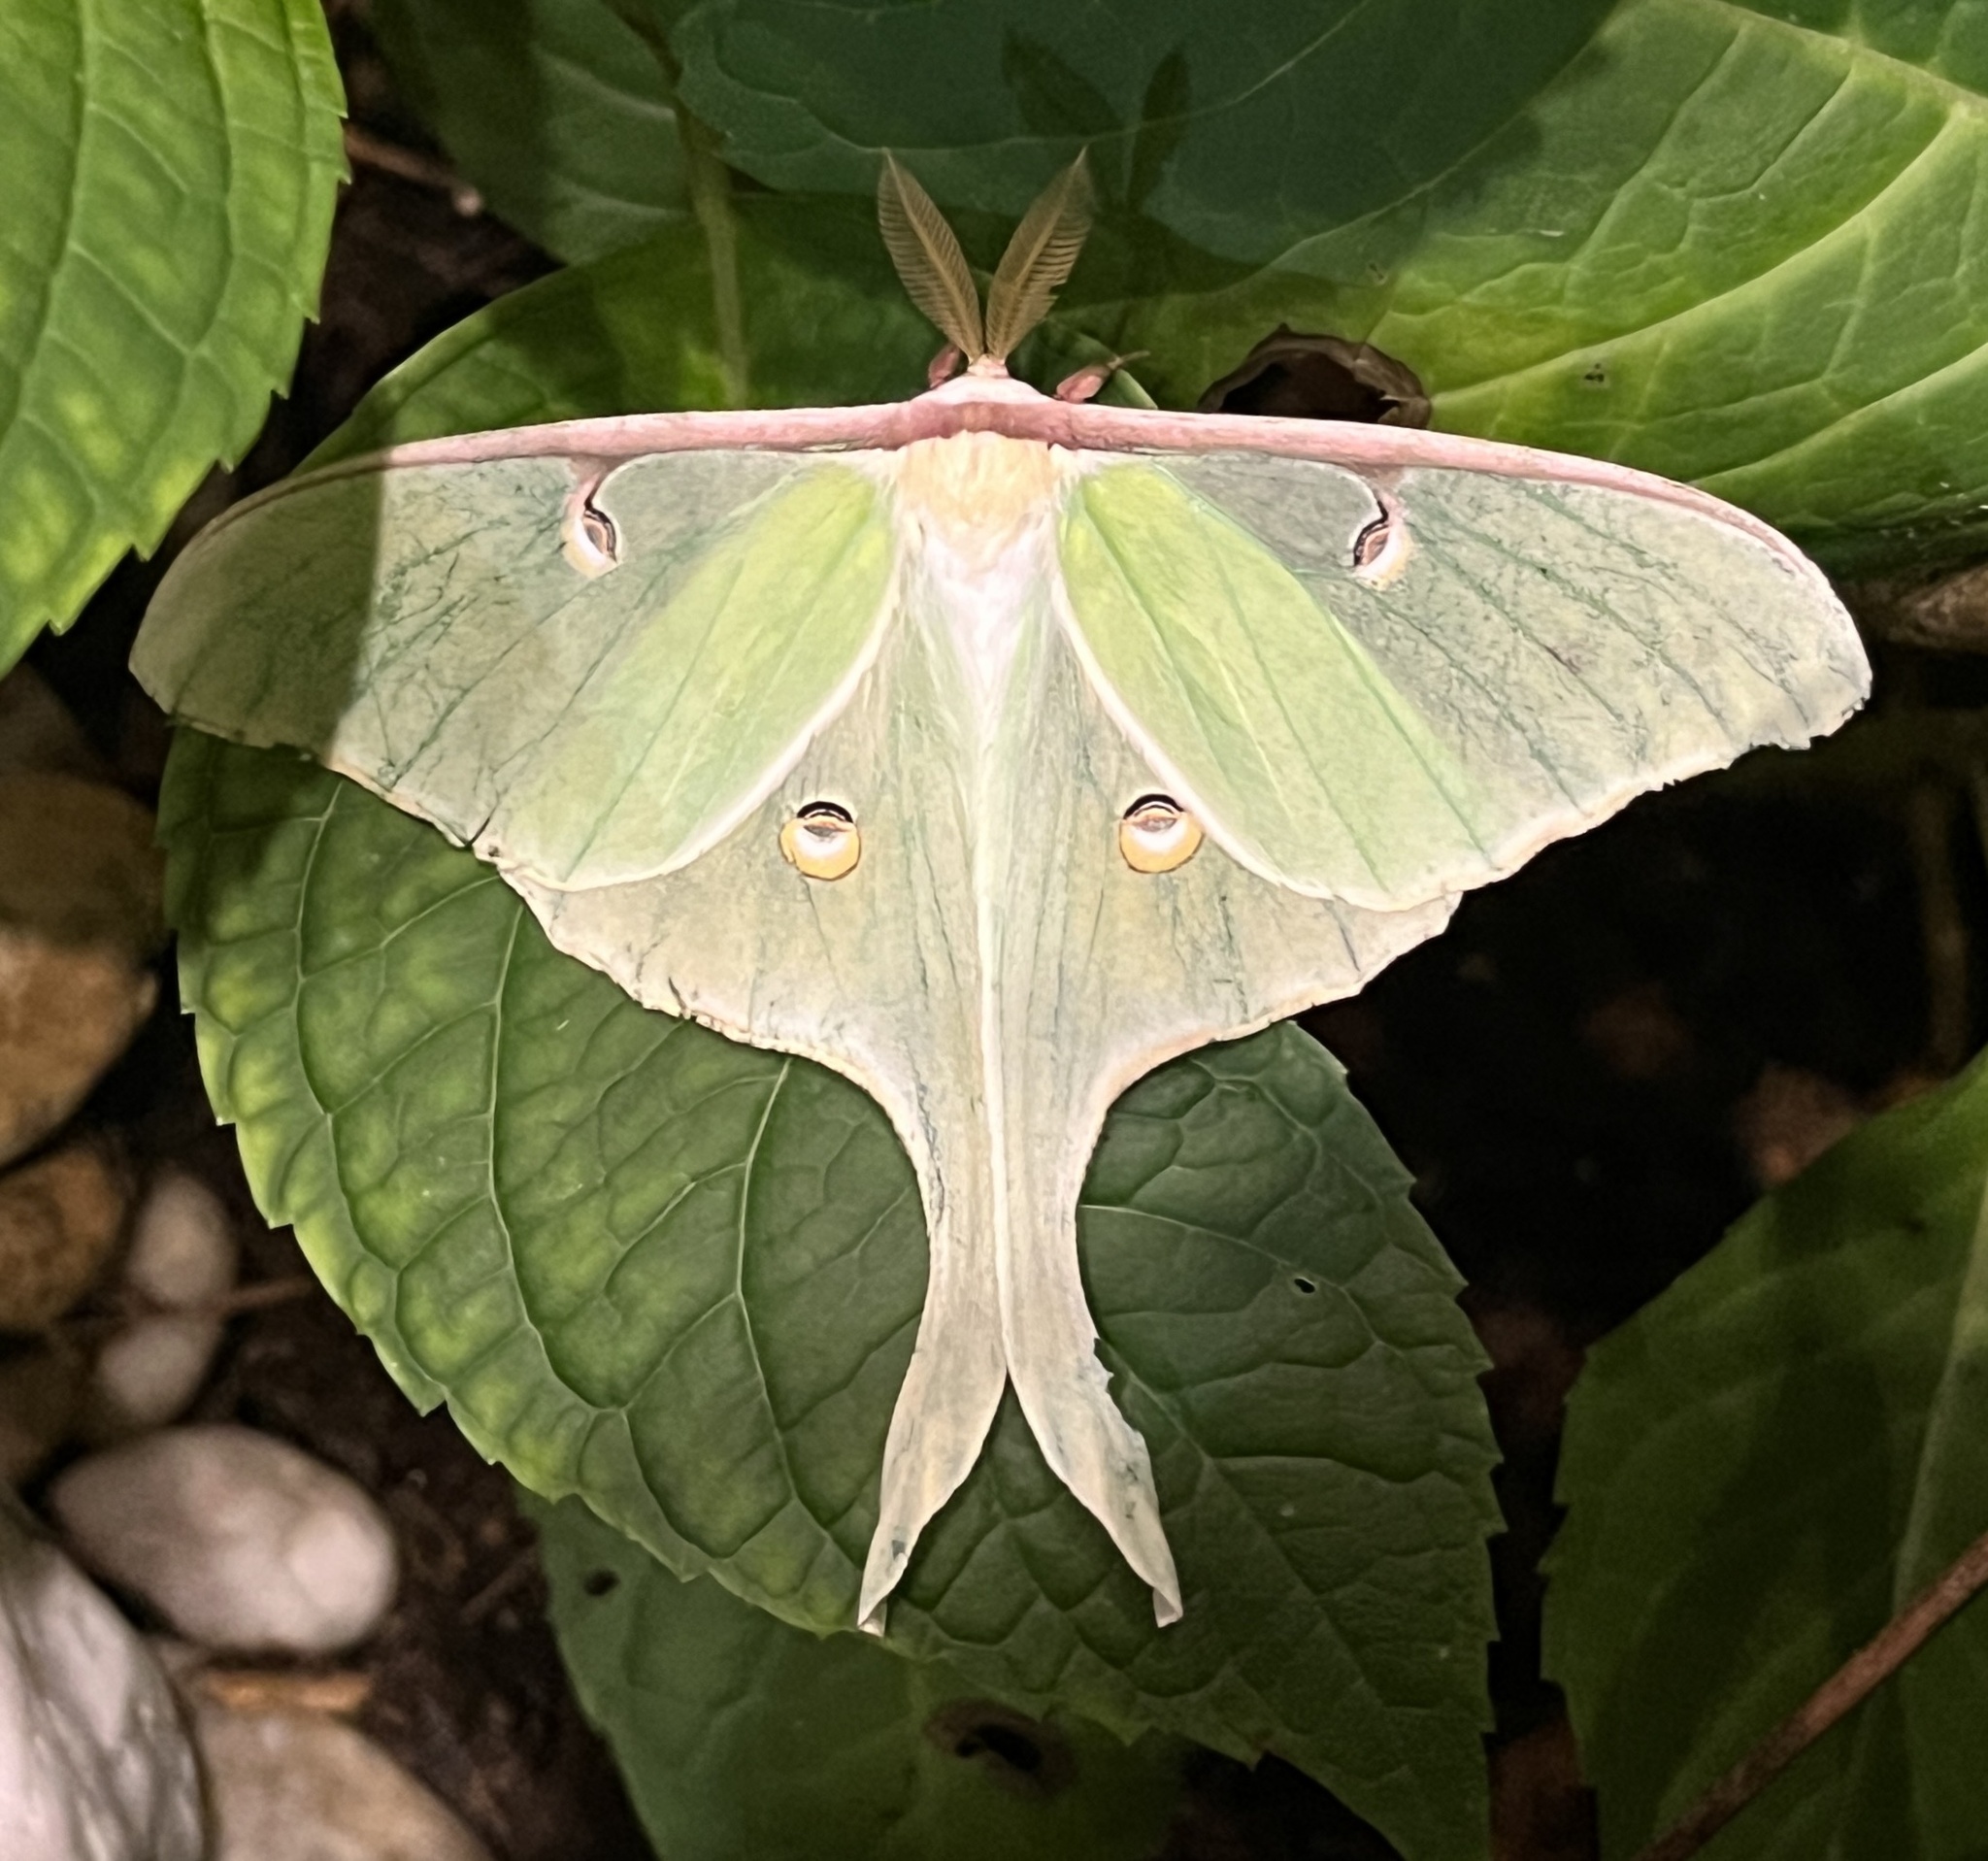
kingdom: Animalia
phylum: Arthropoda
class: Insecta
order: Lepidoptera
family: Saturniidae
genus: Actias
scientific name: Actias luna
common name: Luna moth
